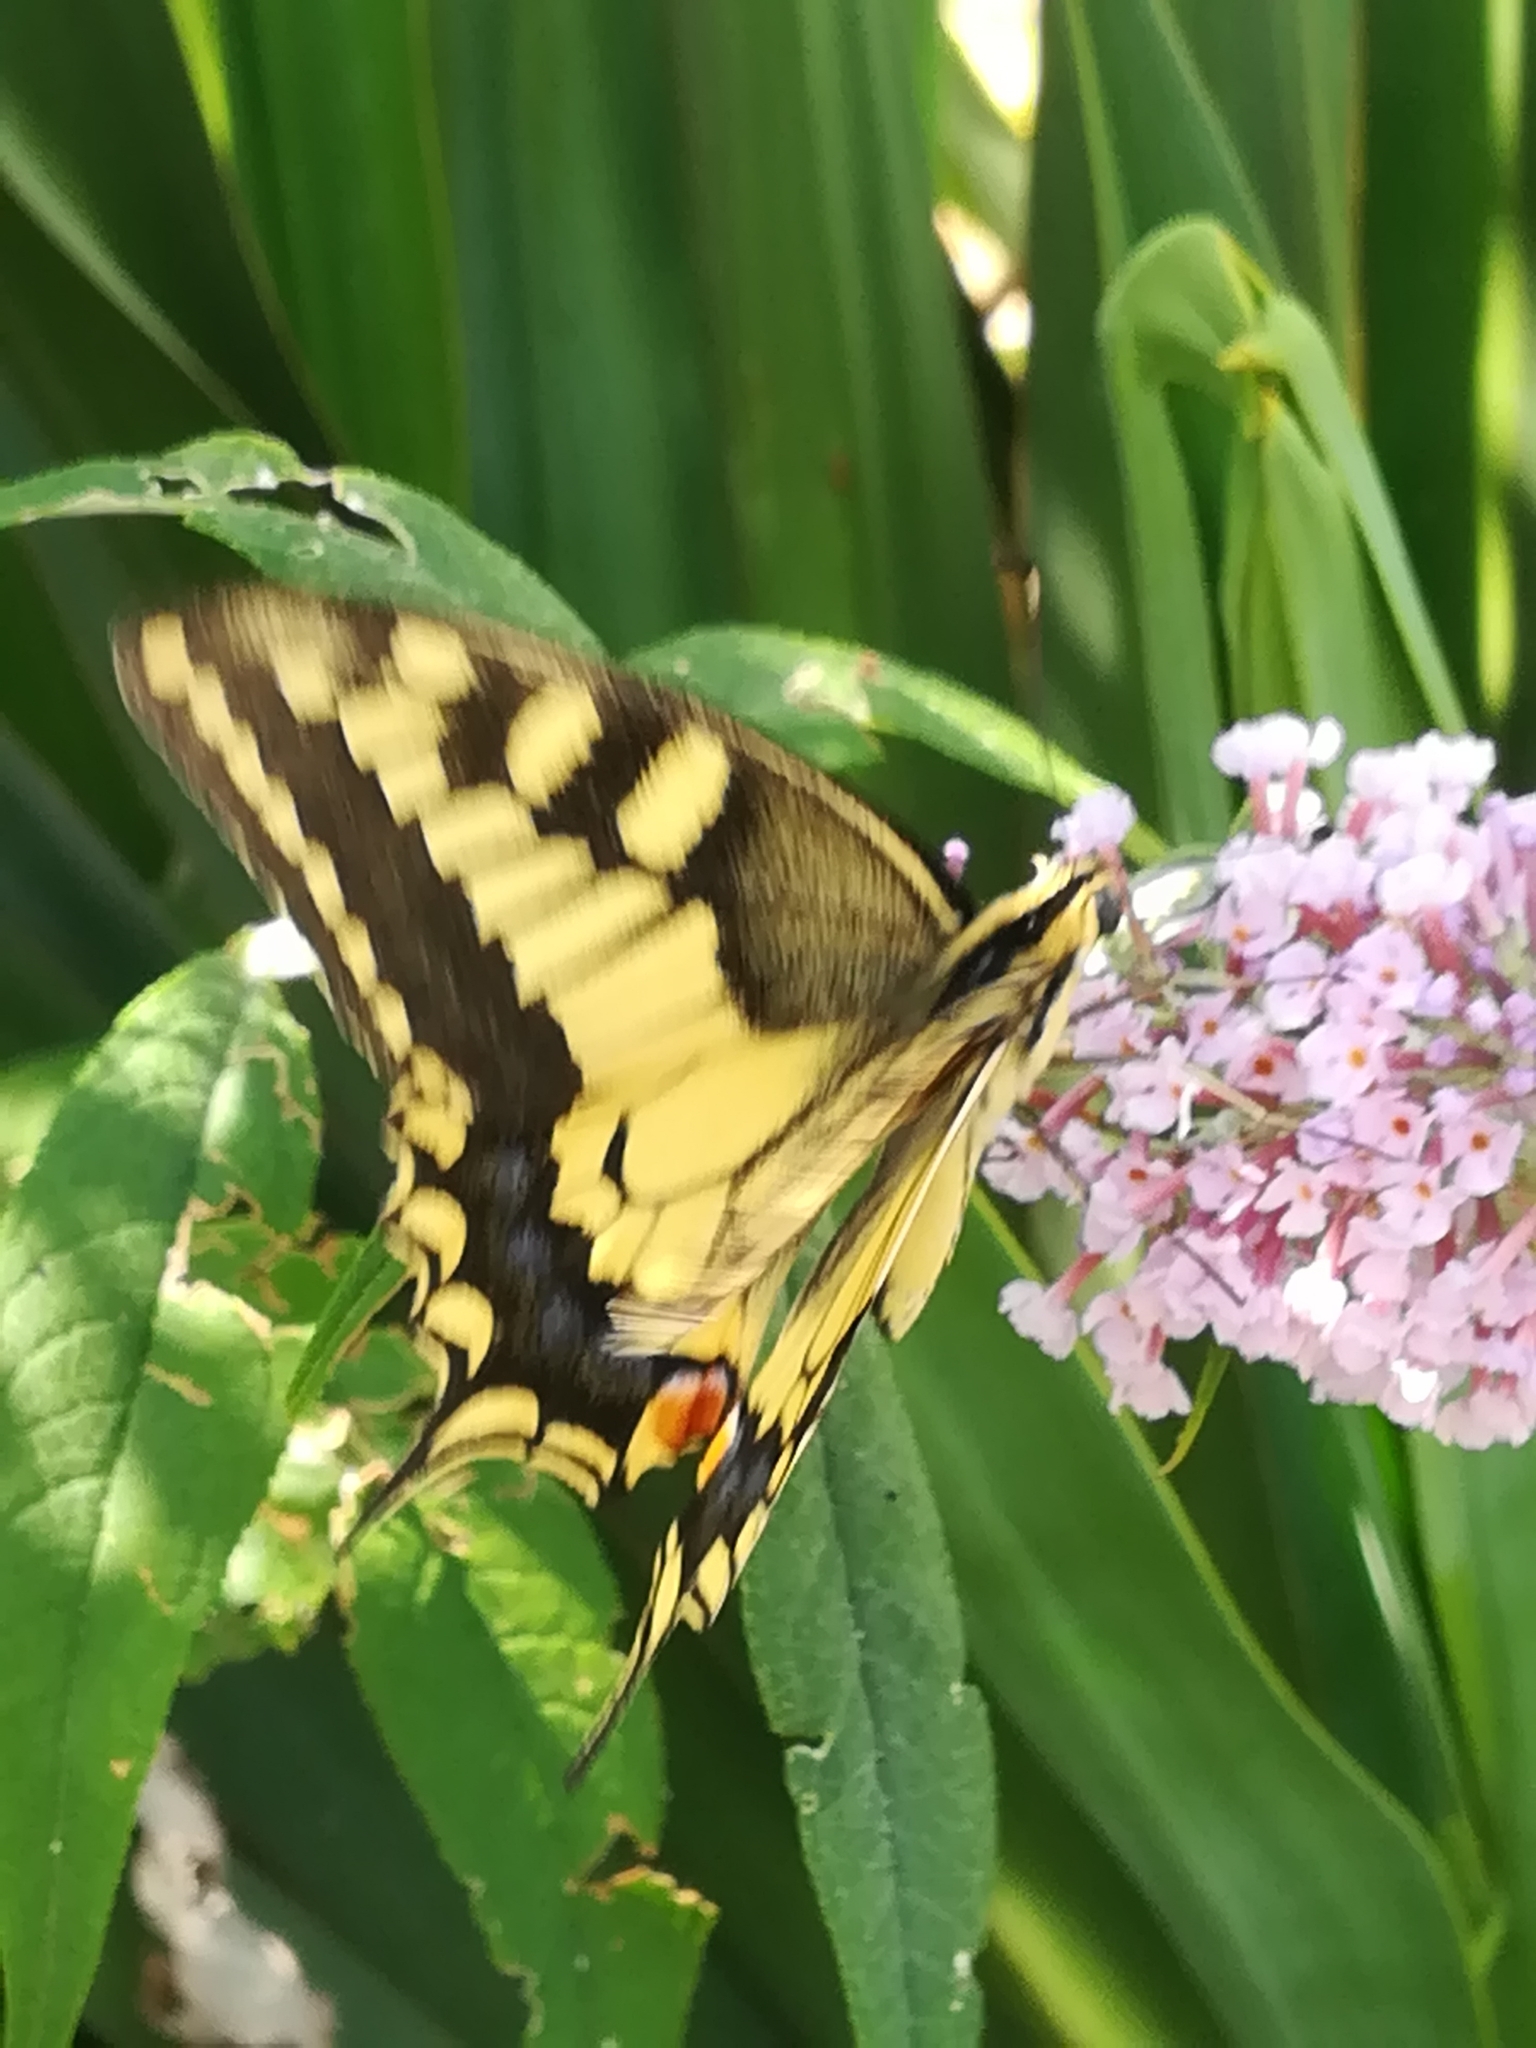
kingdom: Animalia
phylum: Arthropoda
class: Insecta
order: Lepidoptera
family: Papilionidae
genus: Papilio
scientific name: Papilio machaon
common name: Swallowtail
